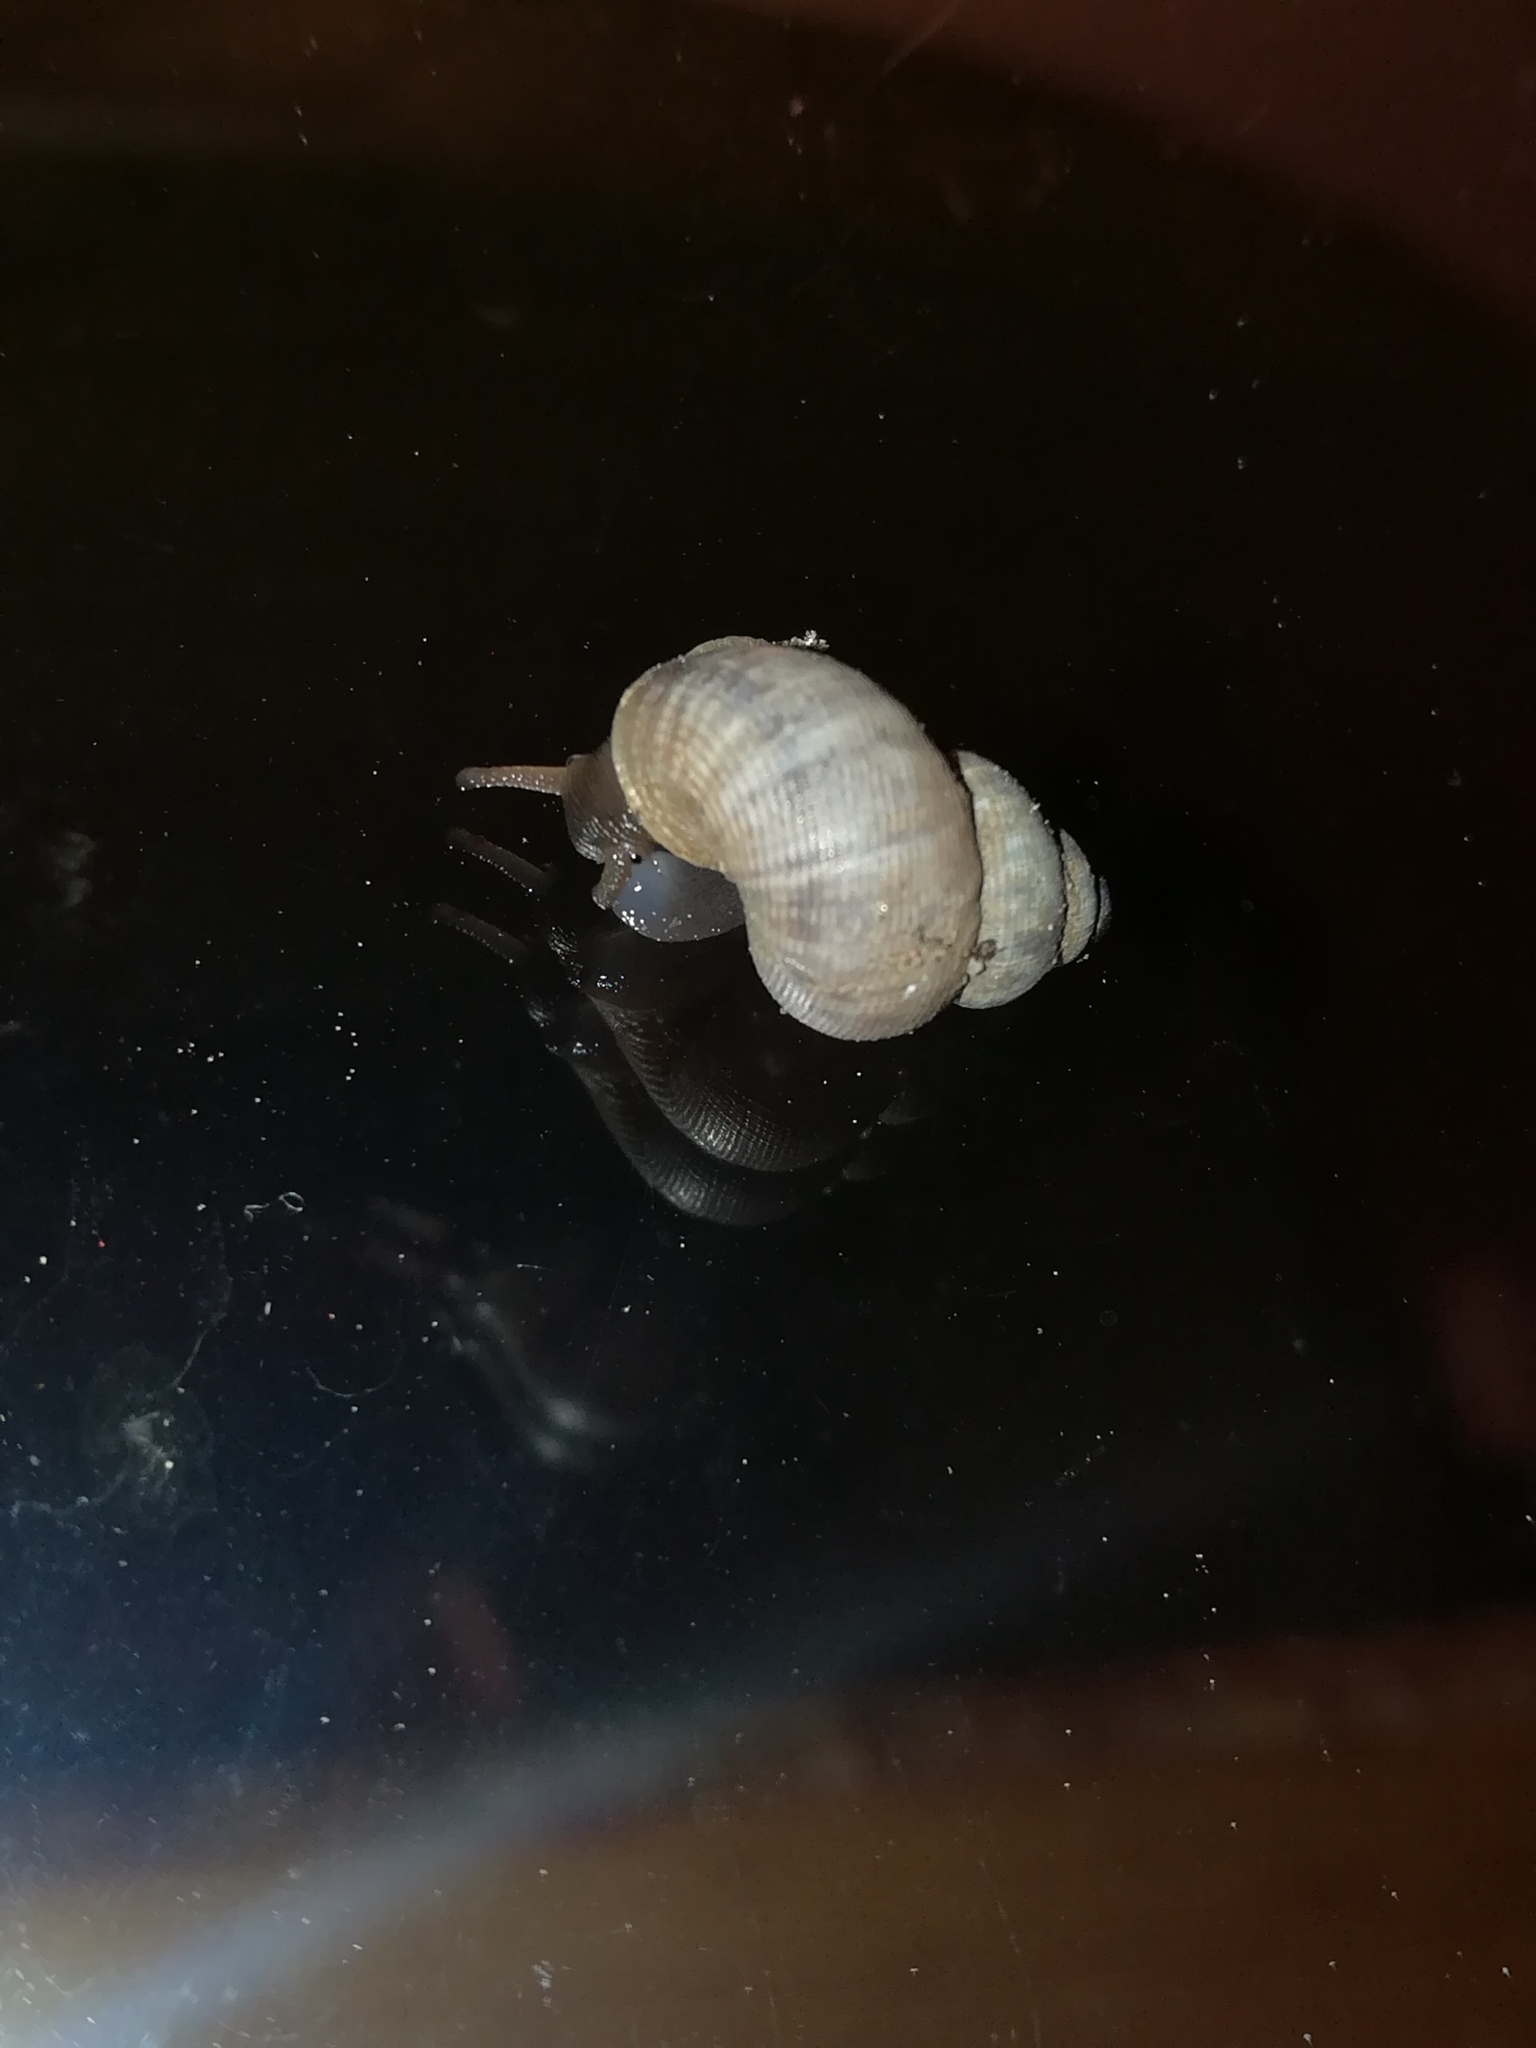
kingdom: Animalia
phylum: Mollusca
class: Gastropoda
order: Littorinimorpha
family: Pomatiidae
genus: Pomatias
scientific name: Pomatias elegans
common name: Red-mouthed snail
